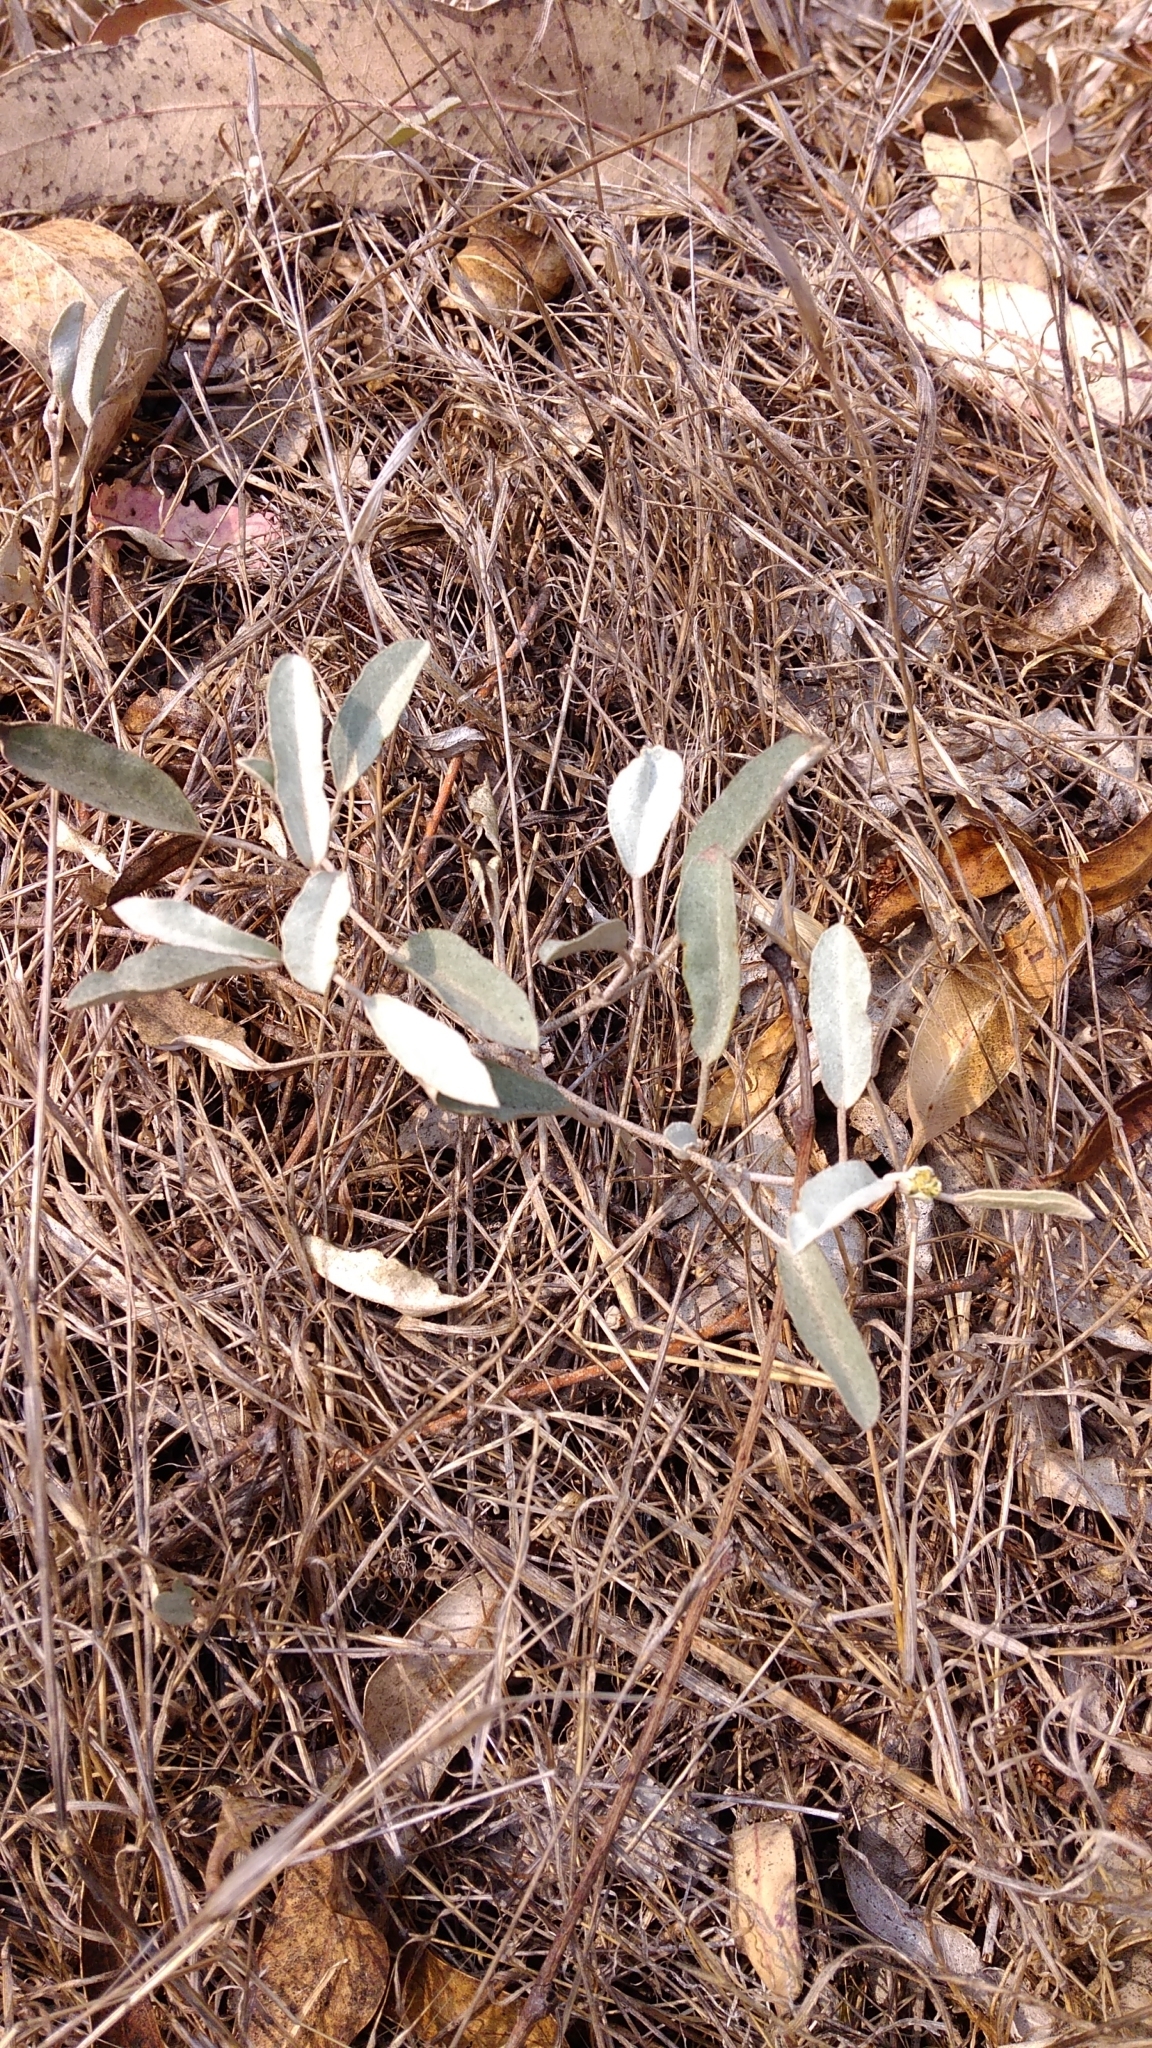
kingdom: Plantae
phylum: Tracheophyta
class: Magnoliopsida
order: Malpighiales
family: Euphorbiaceae
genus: Croton
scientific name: Croton californicus
